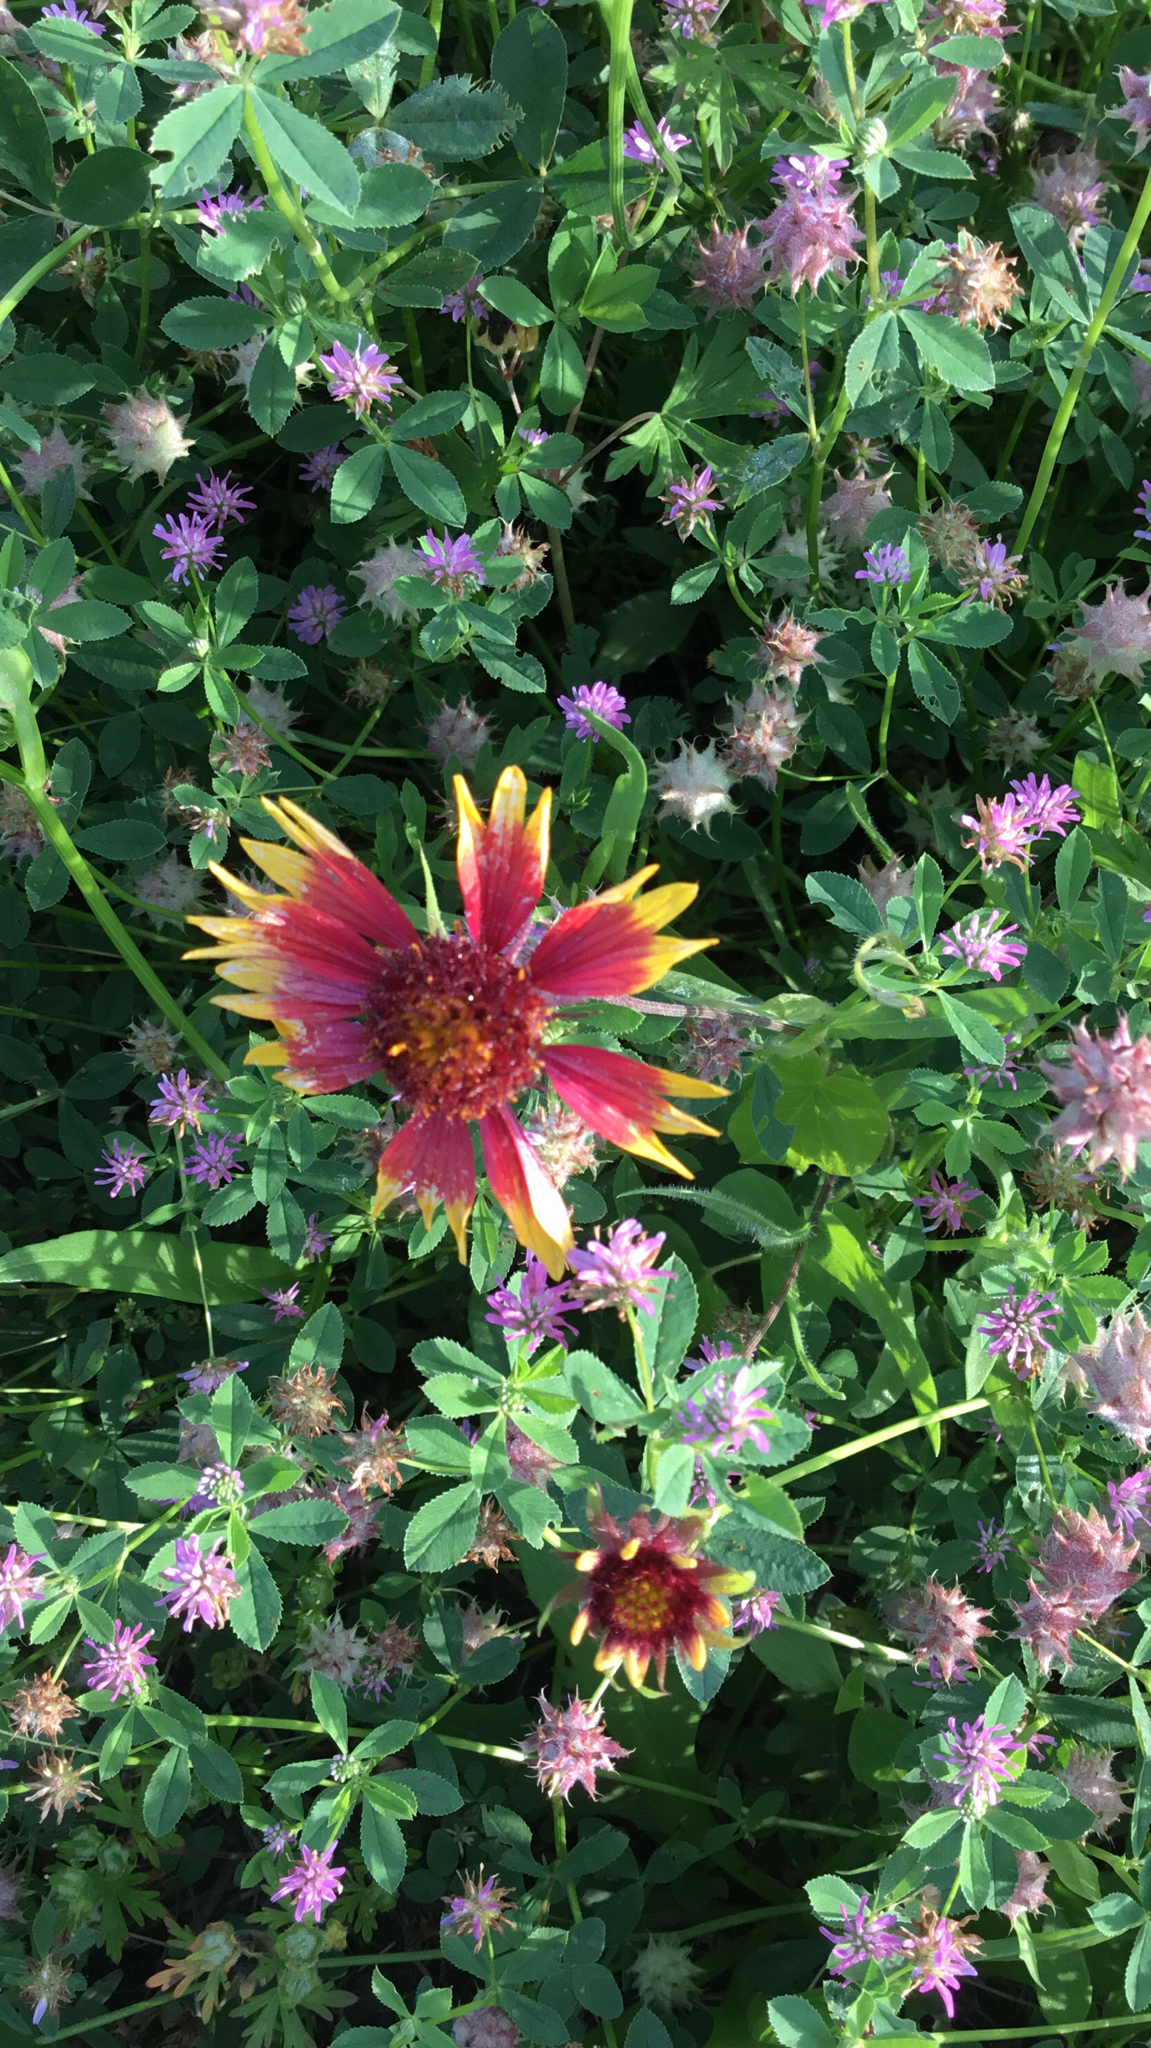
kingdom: Plantae
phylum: Tracheophyta
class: Magnoliopsida
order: Asterales
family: Asteraceae
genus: Gaillardia
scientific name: Gaillardia pulchella
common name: Firewheel
